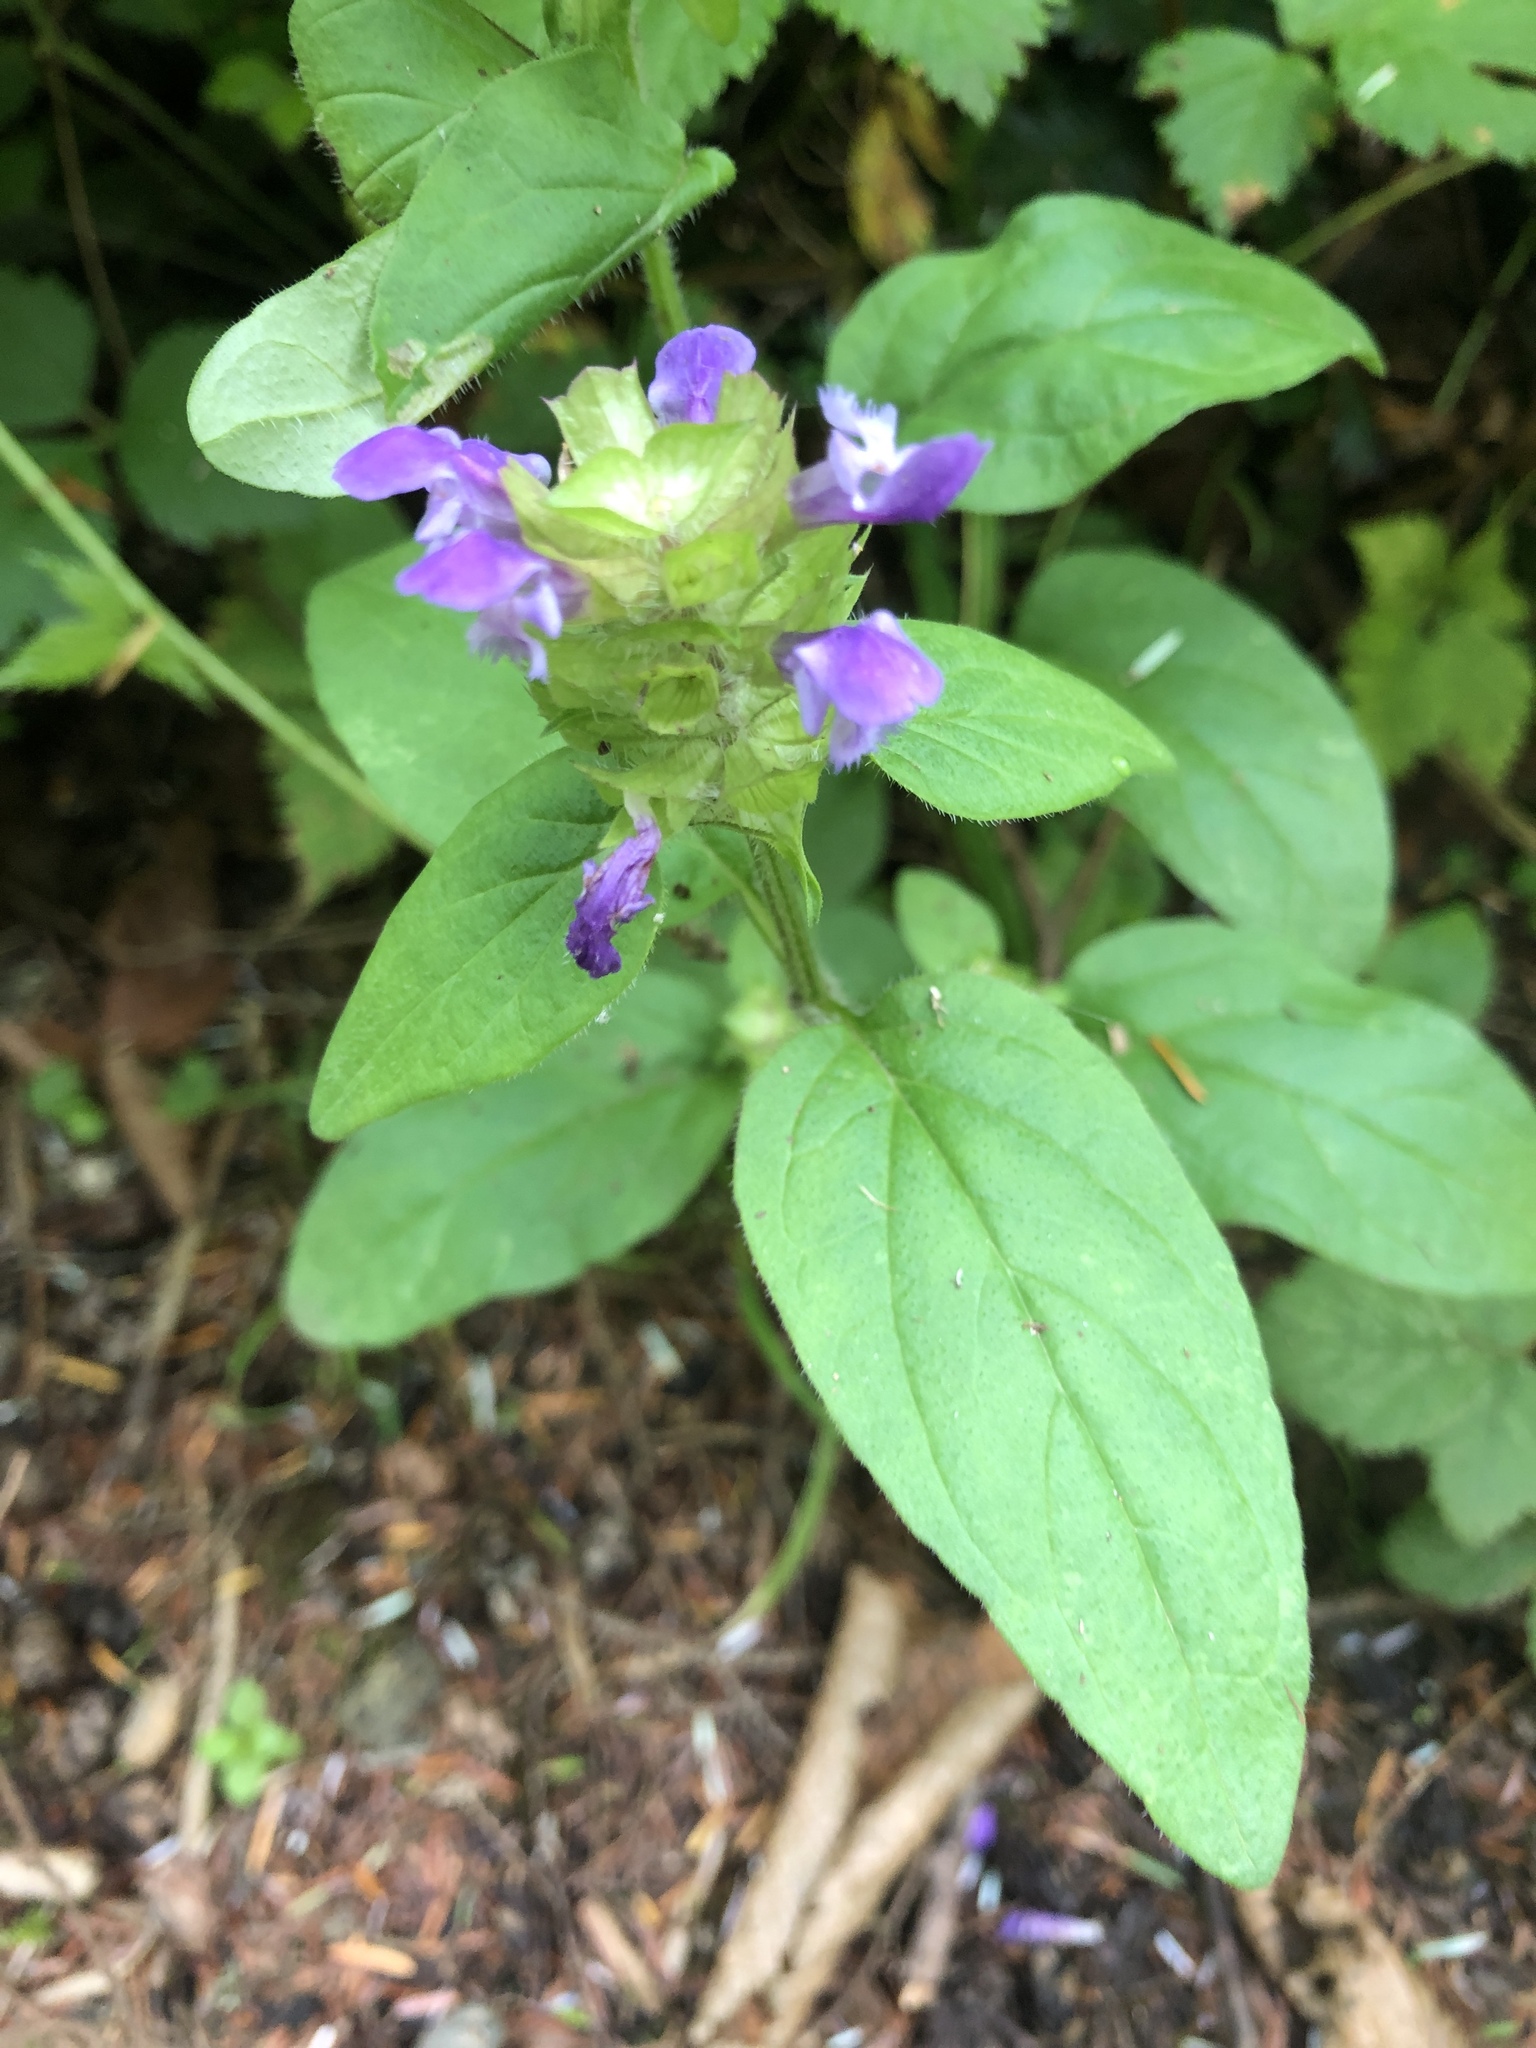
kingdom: Plantae
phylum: Tracheophyta
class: Magnoliopsida
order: Lamiales
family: Lamiaceae
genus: Prunella
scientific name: Prunella vulgaris
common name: Heal-all
